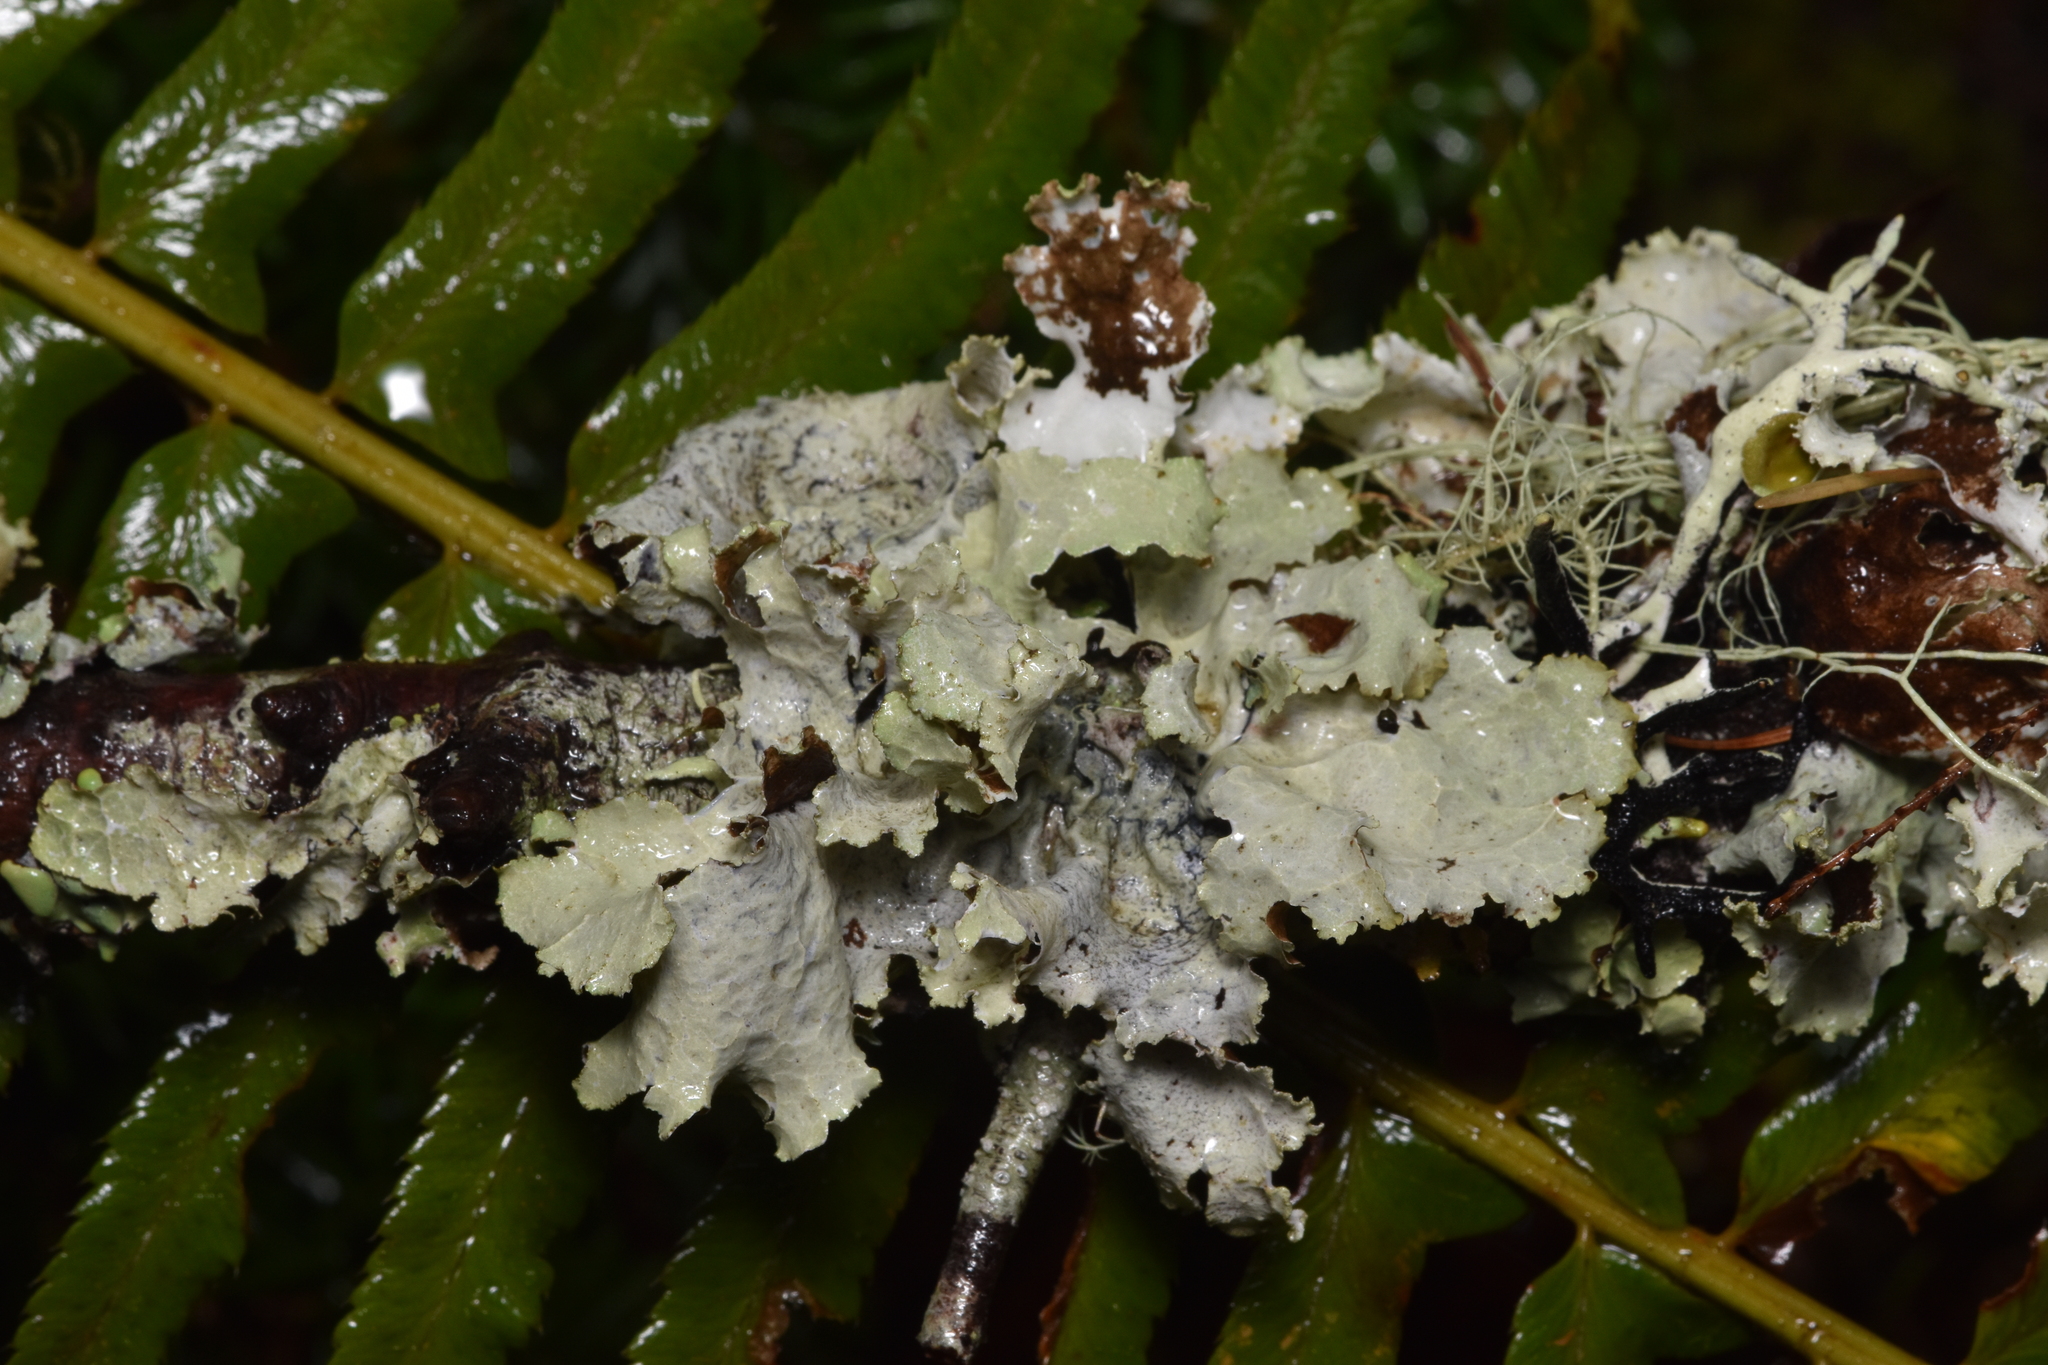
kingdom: Fungi
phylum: Ascomycota
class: Lecanoromycetes
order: Lecanorales
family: Parmeliaceae
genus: Platismatia
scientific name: Platismatia glauca
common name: Varied rag lichen
